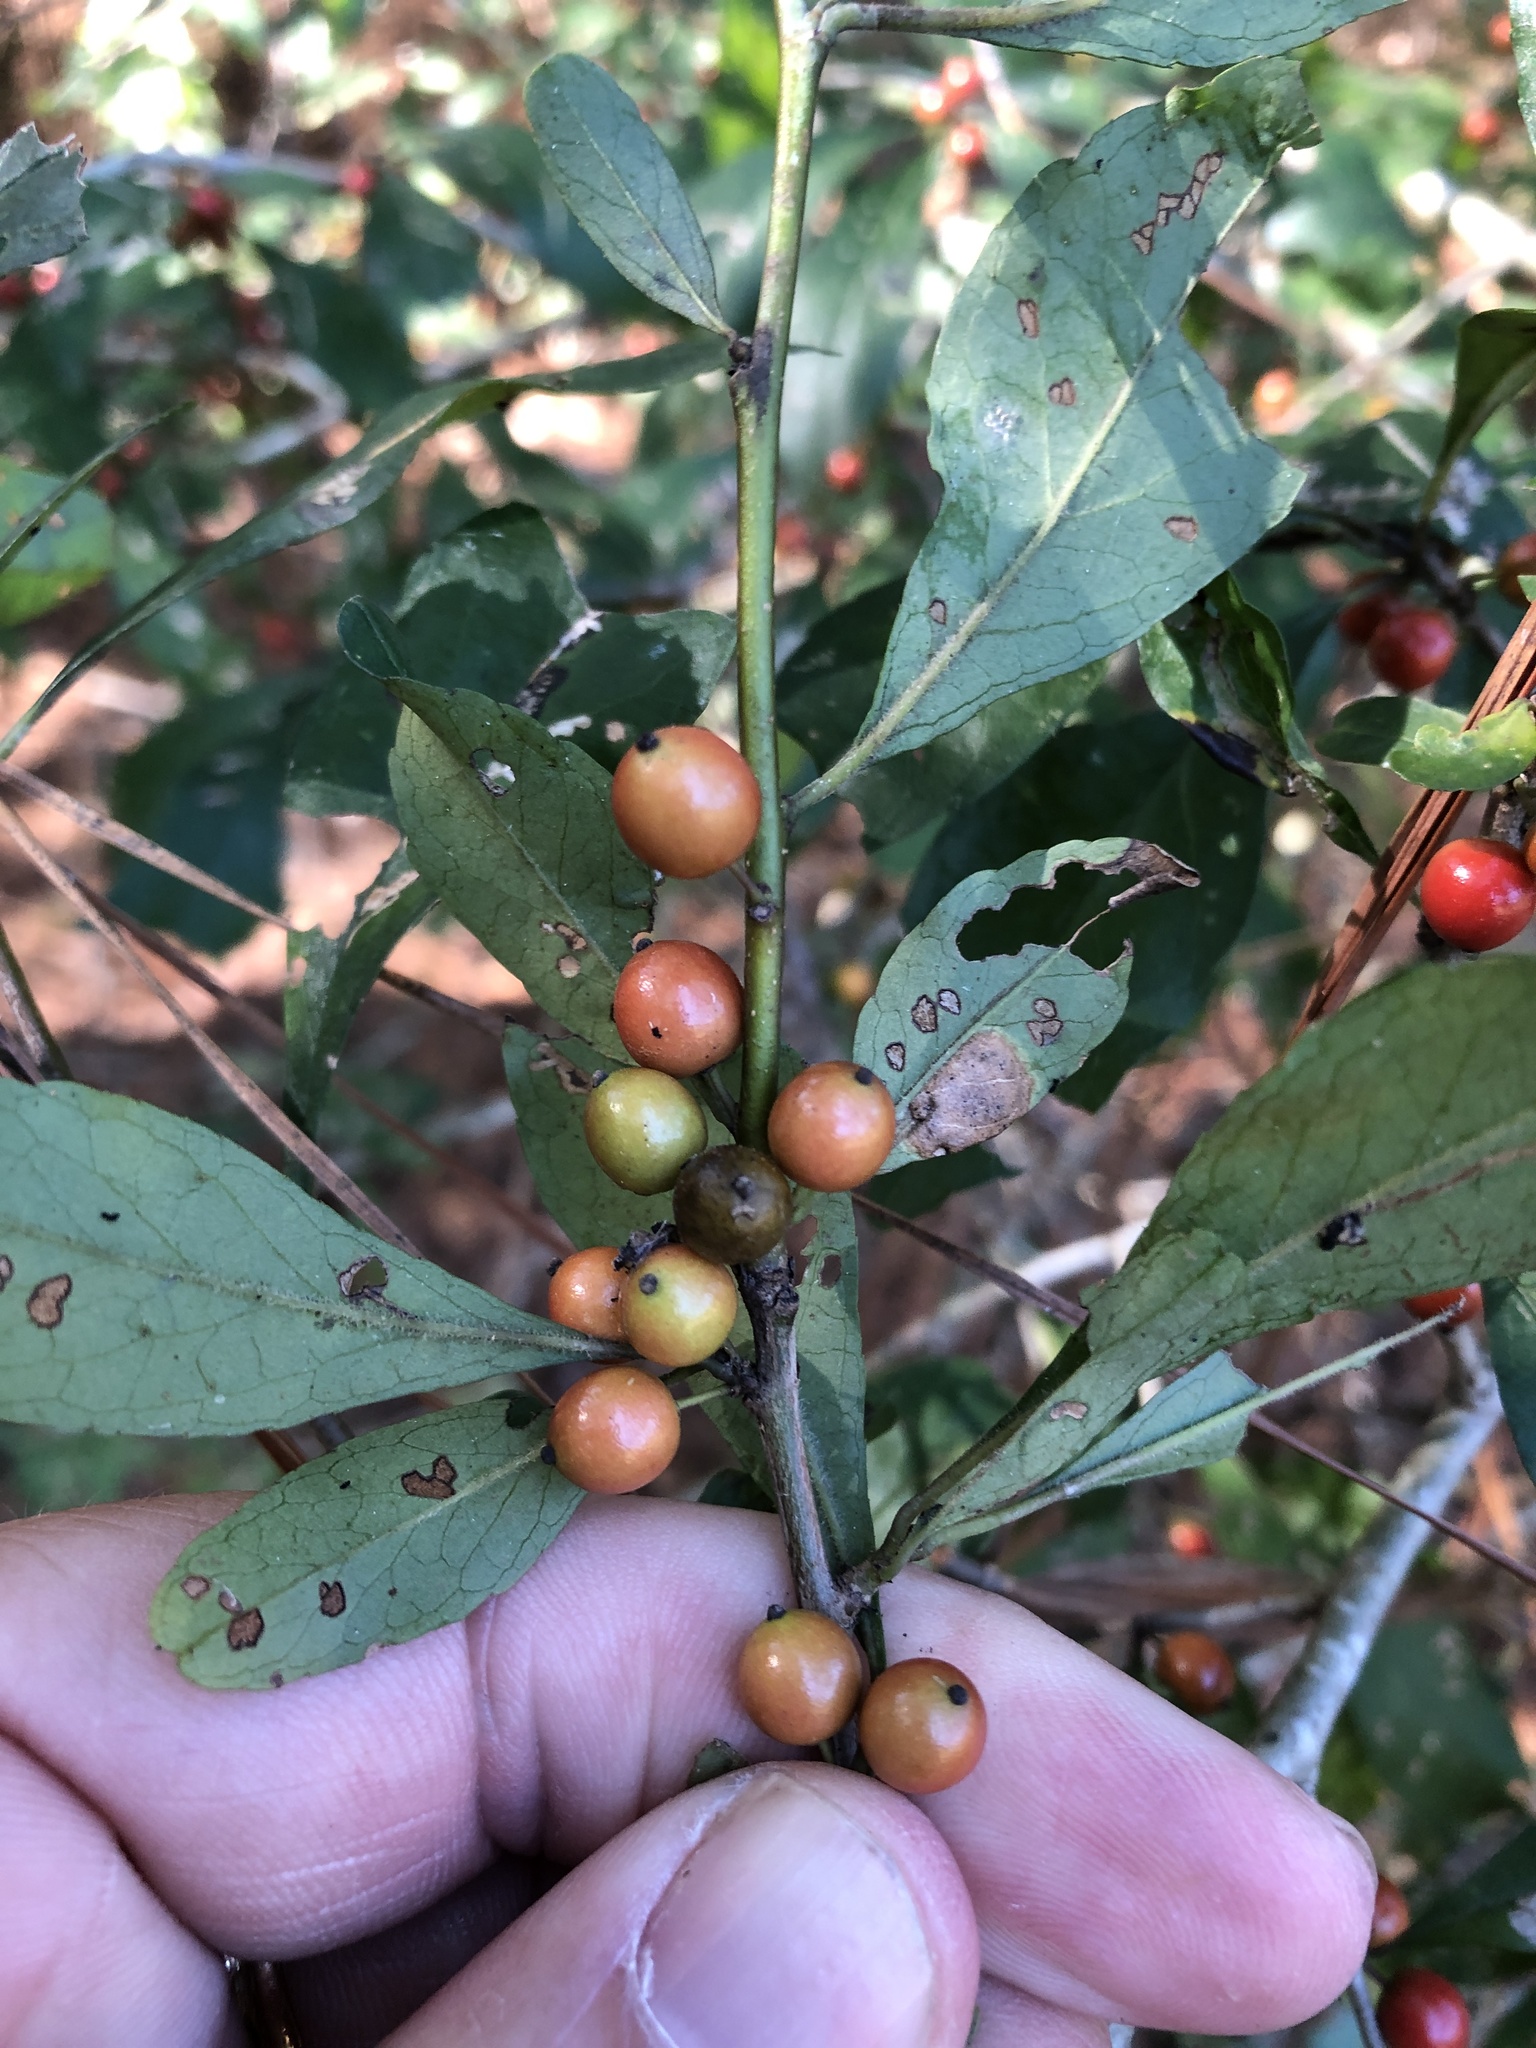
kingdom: Plantae
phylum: Tracheophyta
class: Magnoliopsida
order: Aquifoliales
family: Aquifoliaceae
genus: Ilex
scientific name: Ilex decidua
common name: Possum-haw
